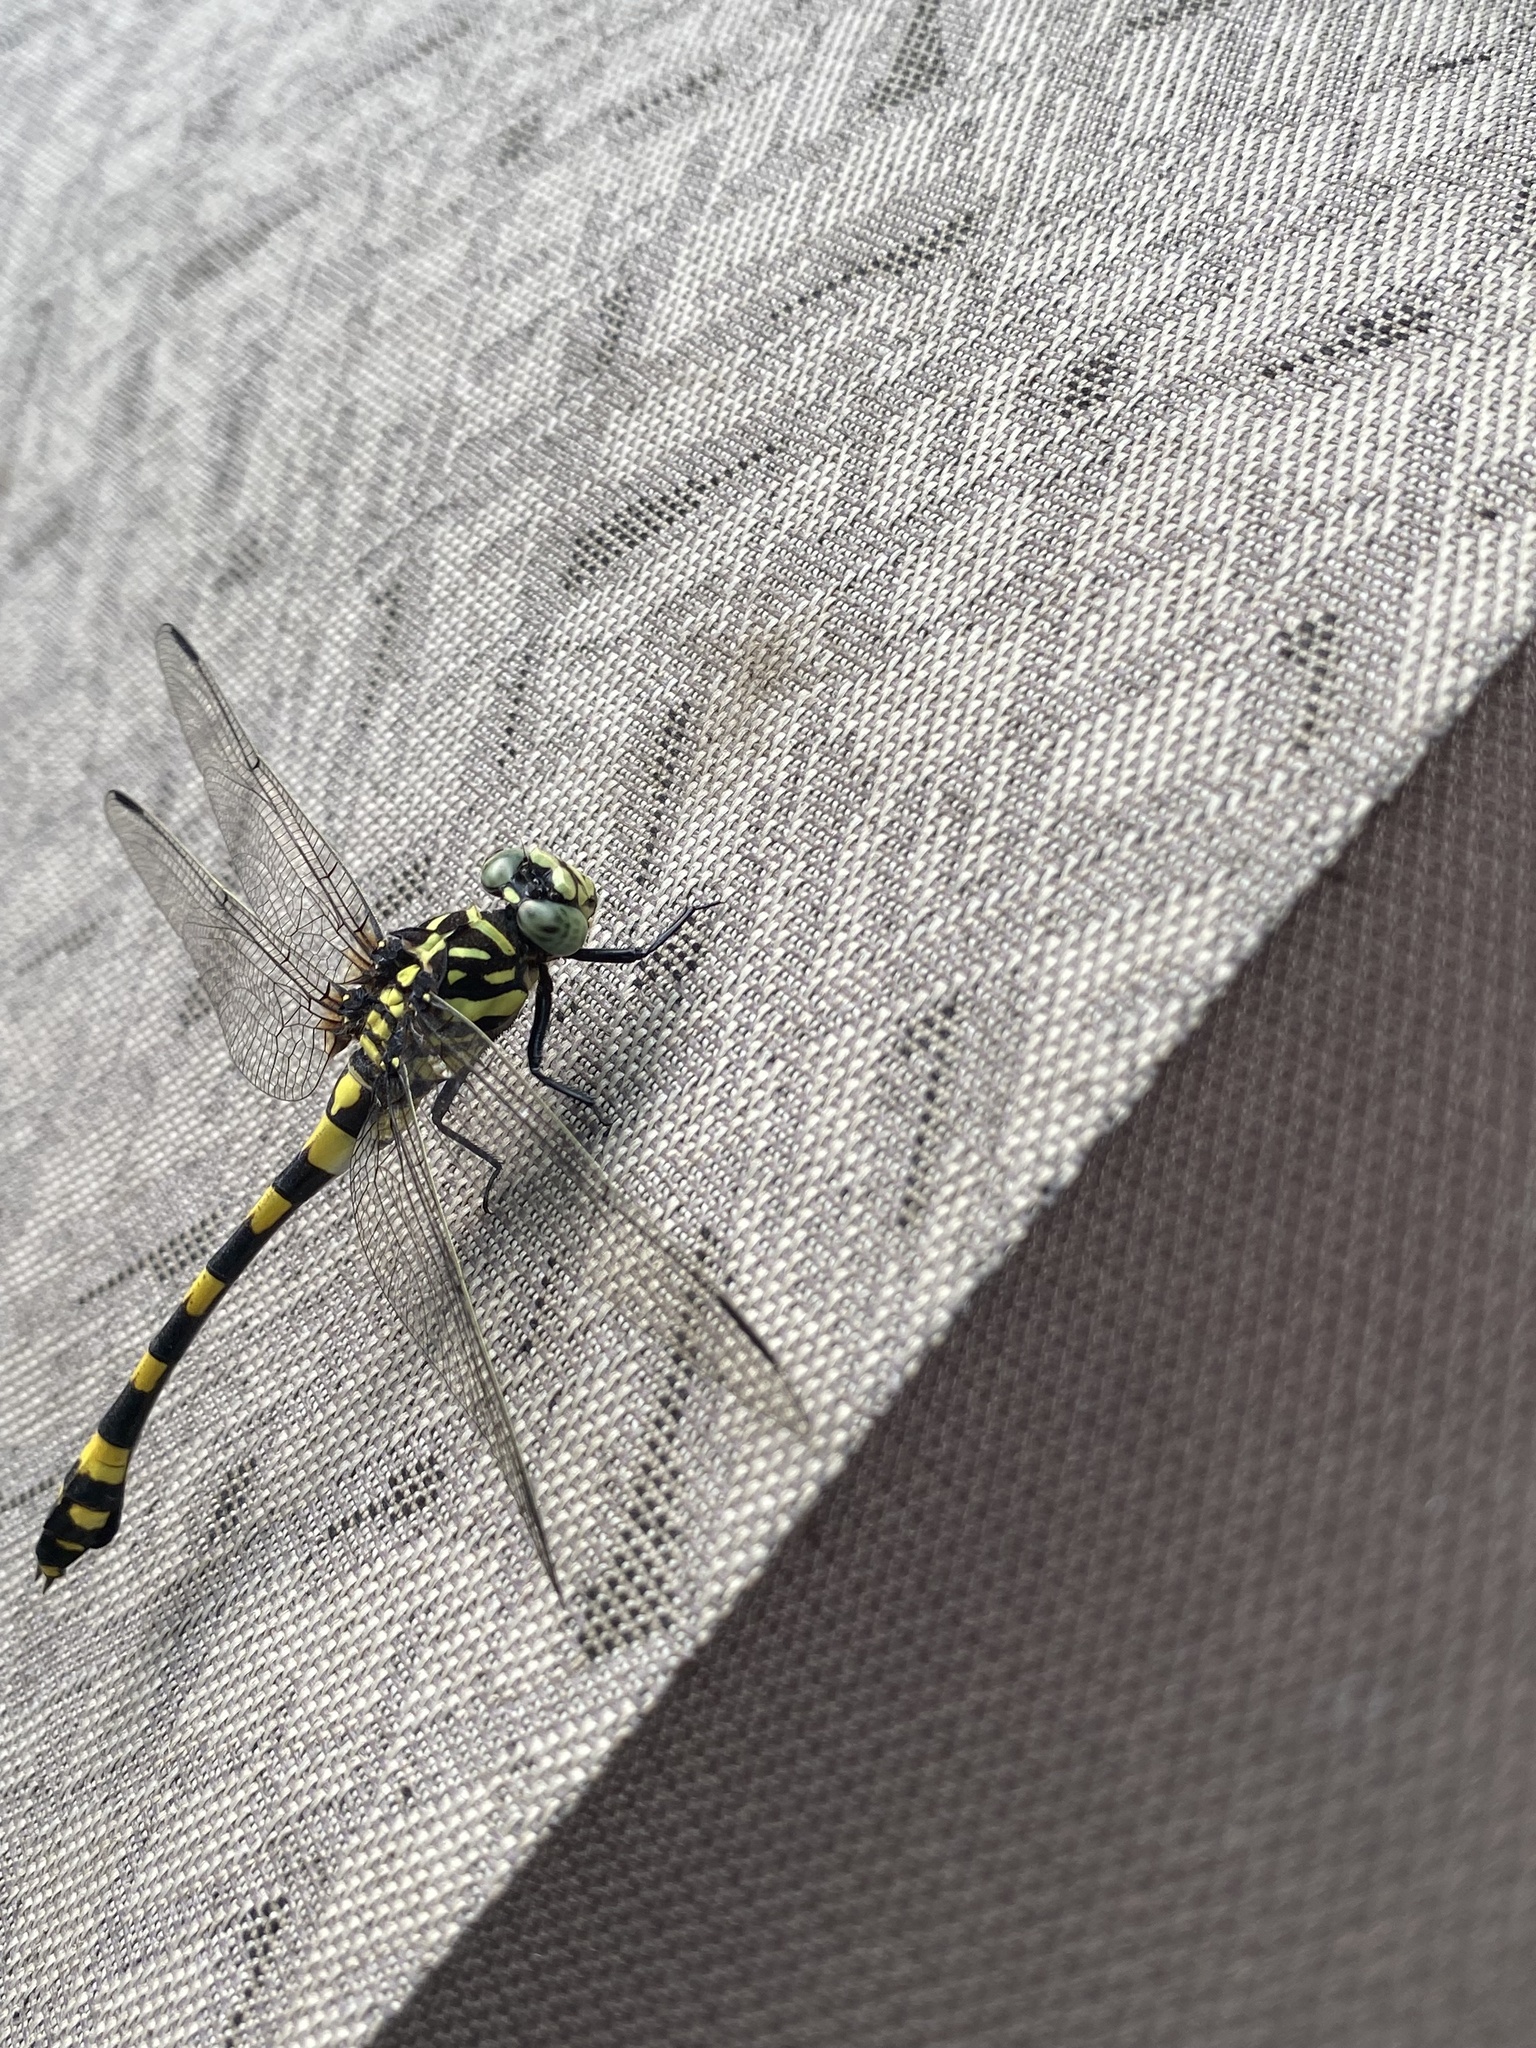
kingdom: Animalia
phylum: Arthropoda
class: Insecta
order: Odonata
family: Gomphidae
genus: Ictinogomphus
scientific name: Ictinogomphus rapax
